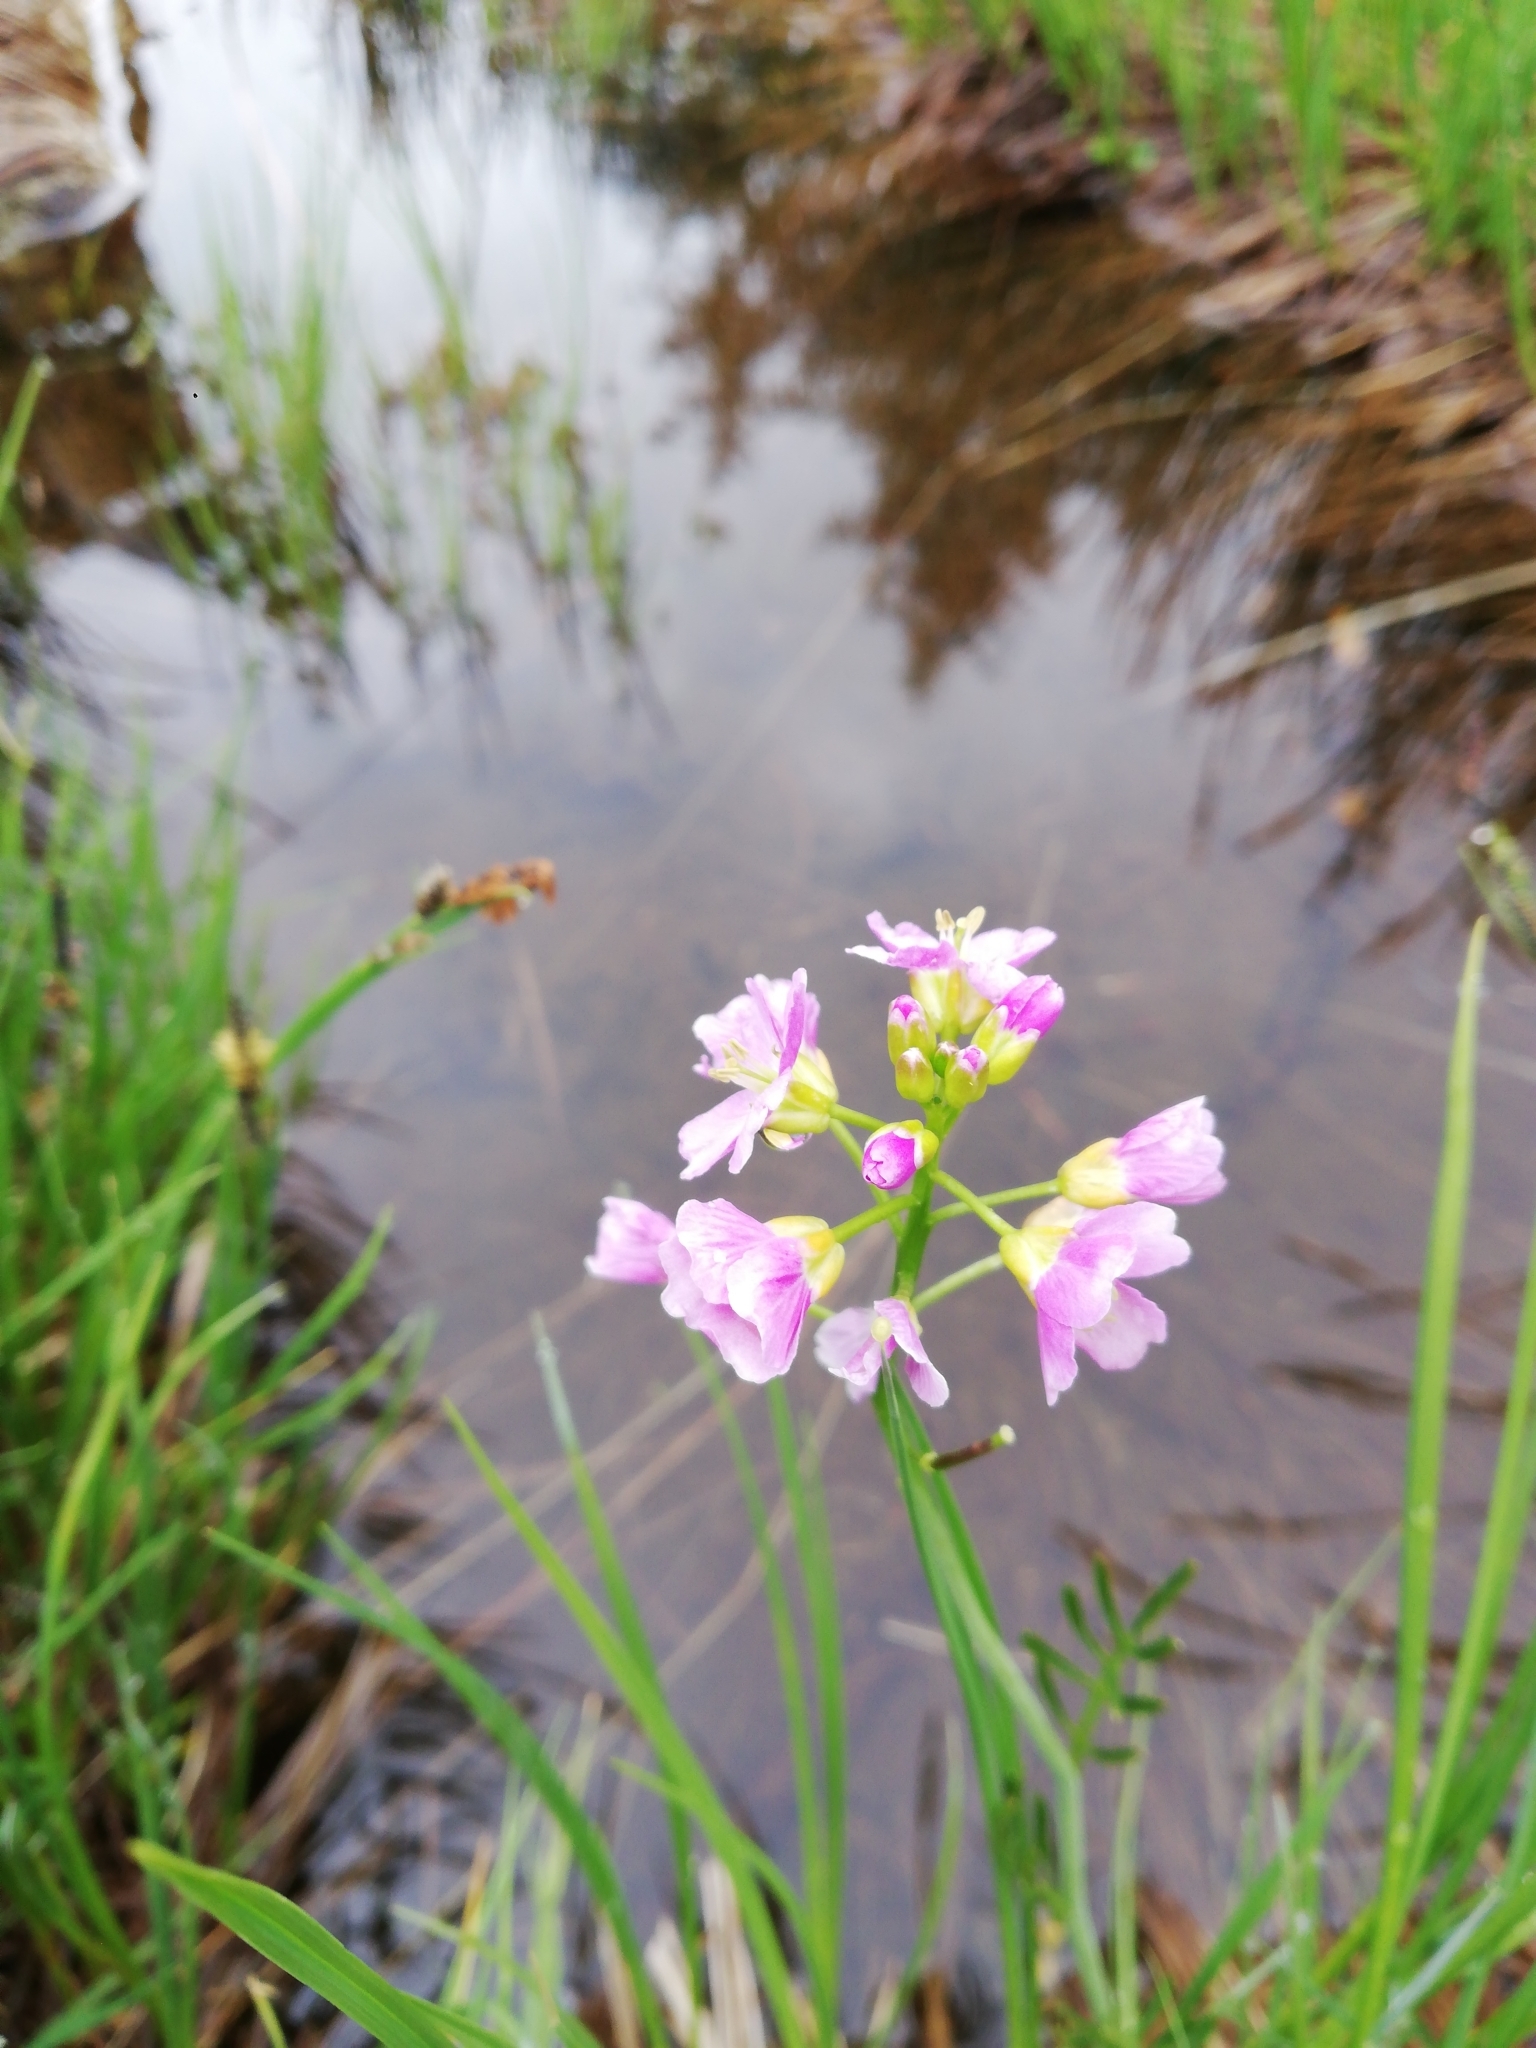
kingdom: Plantae
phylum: Tracheophyta
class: Magnoliopsida
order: Brassicales
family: Brassicaceae
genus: Cardamine
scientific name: Cardamine pratensis
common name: Cuckoo flower
